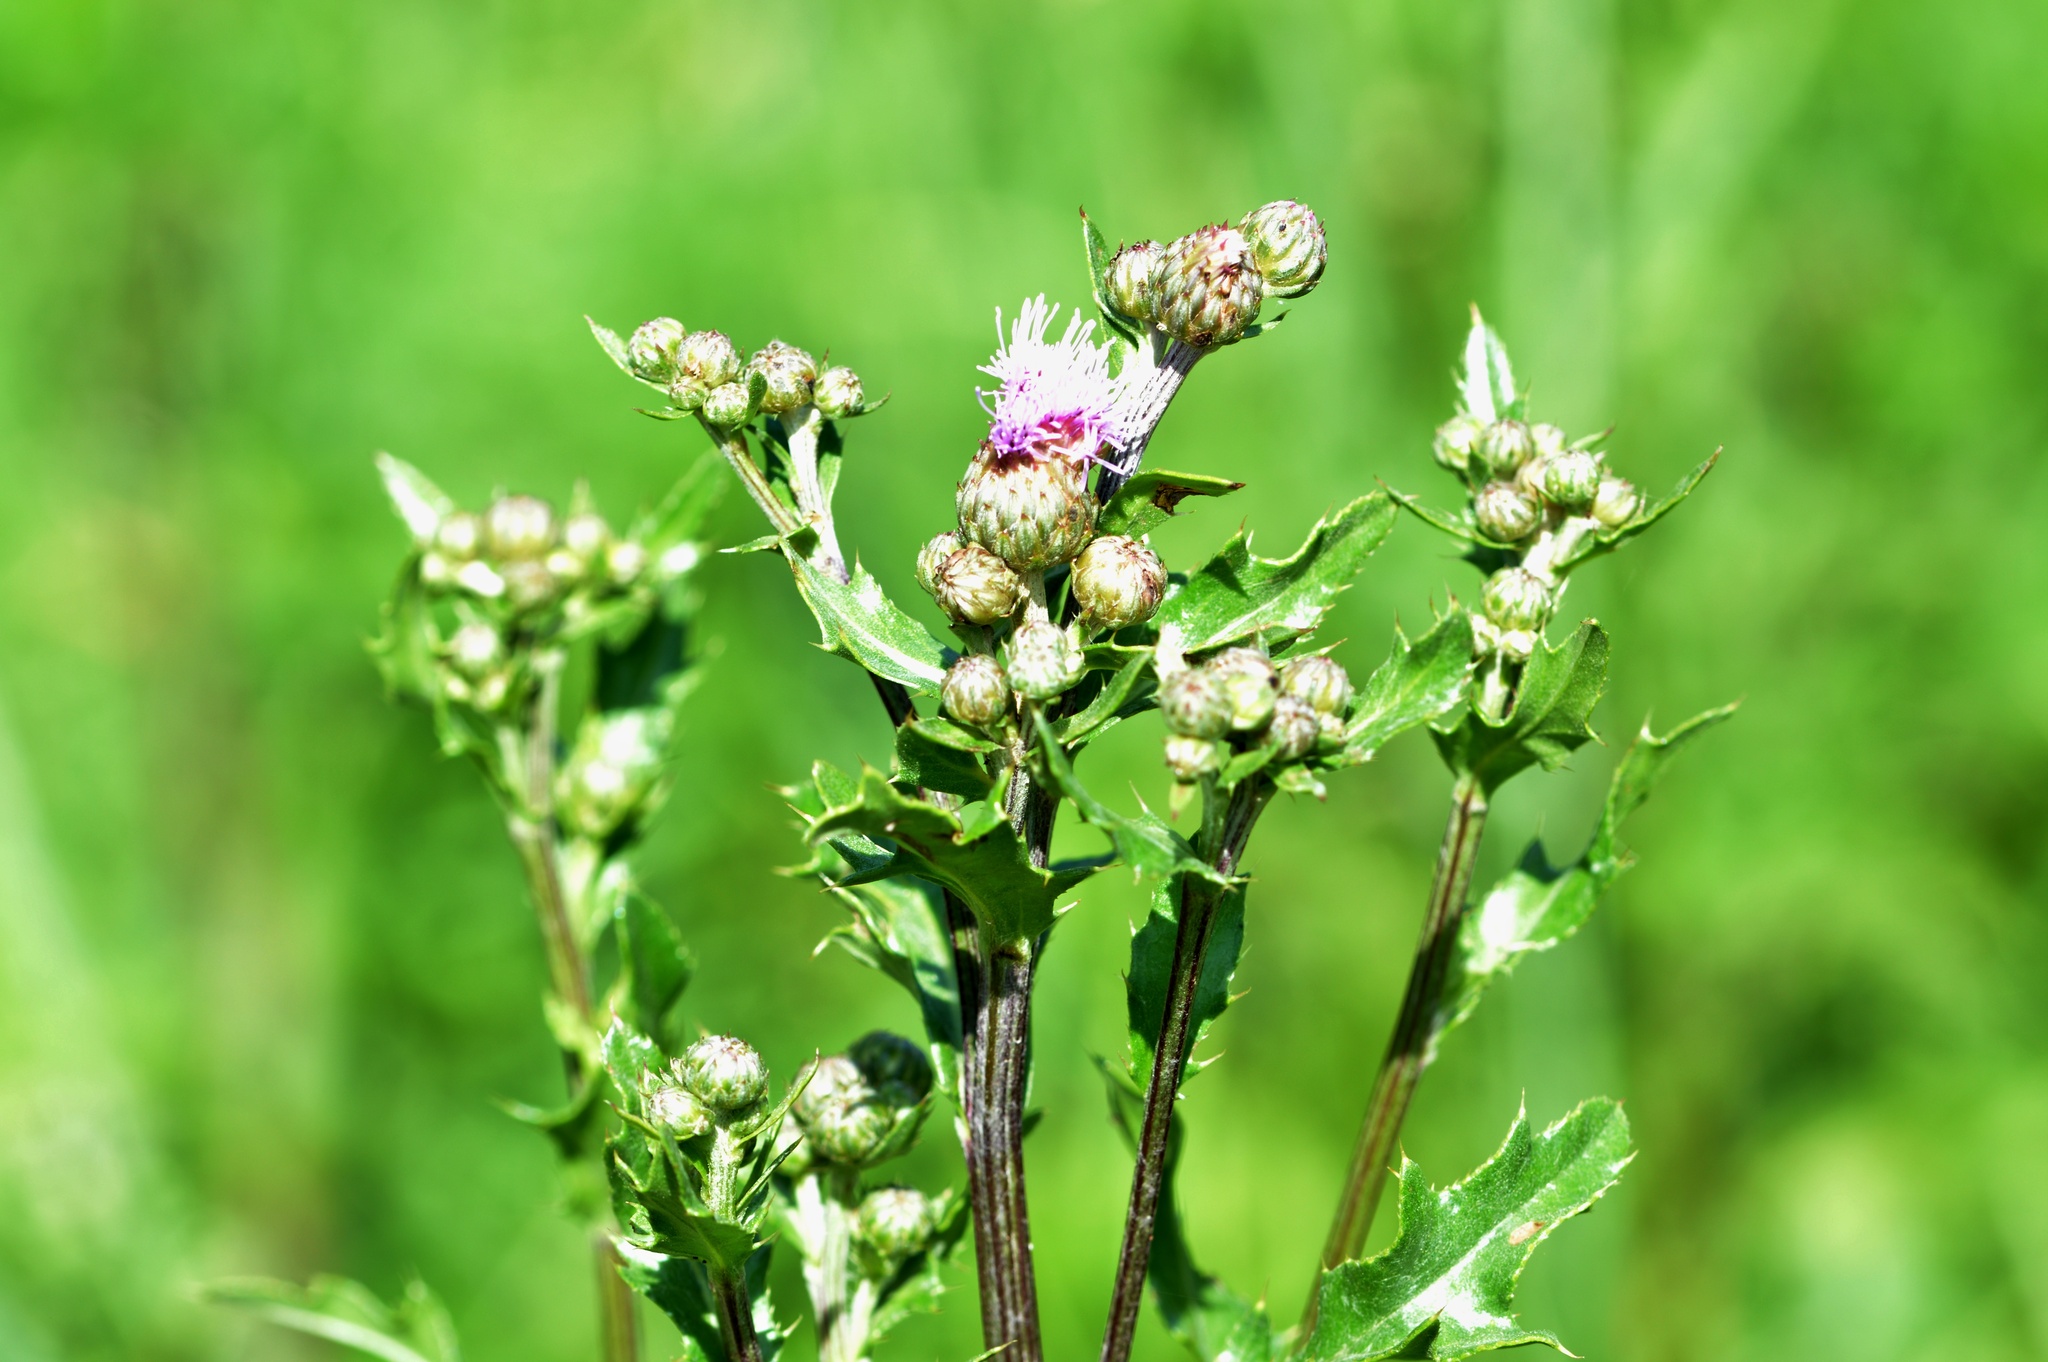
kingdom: Plantae
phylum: Tracheophyta
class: Magnoliopsida
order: Asterales
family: Asteraceae
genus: Cirsium
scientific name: Cirsium arvense
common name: Creeping thistle
